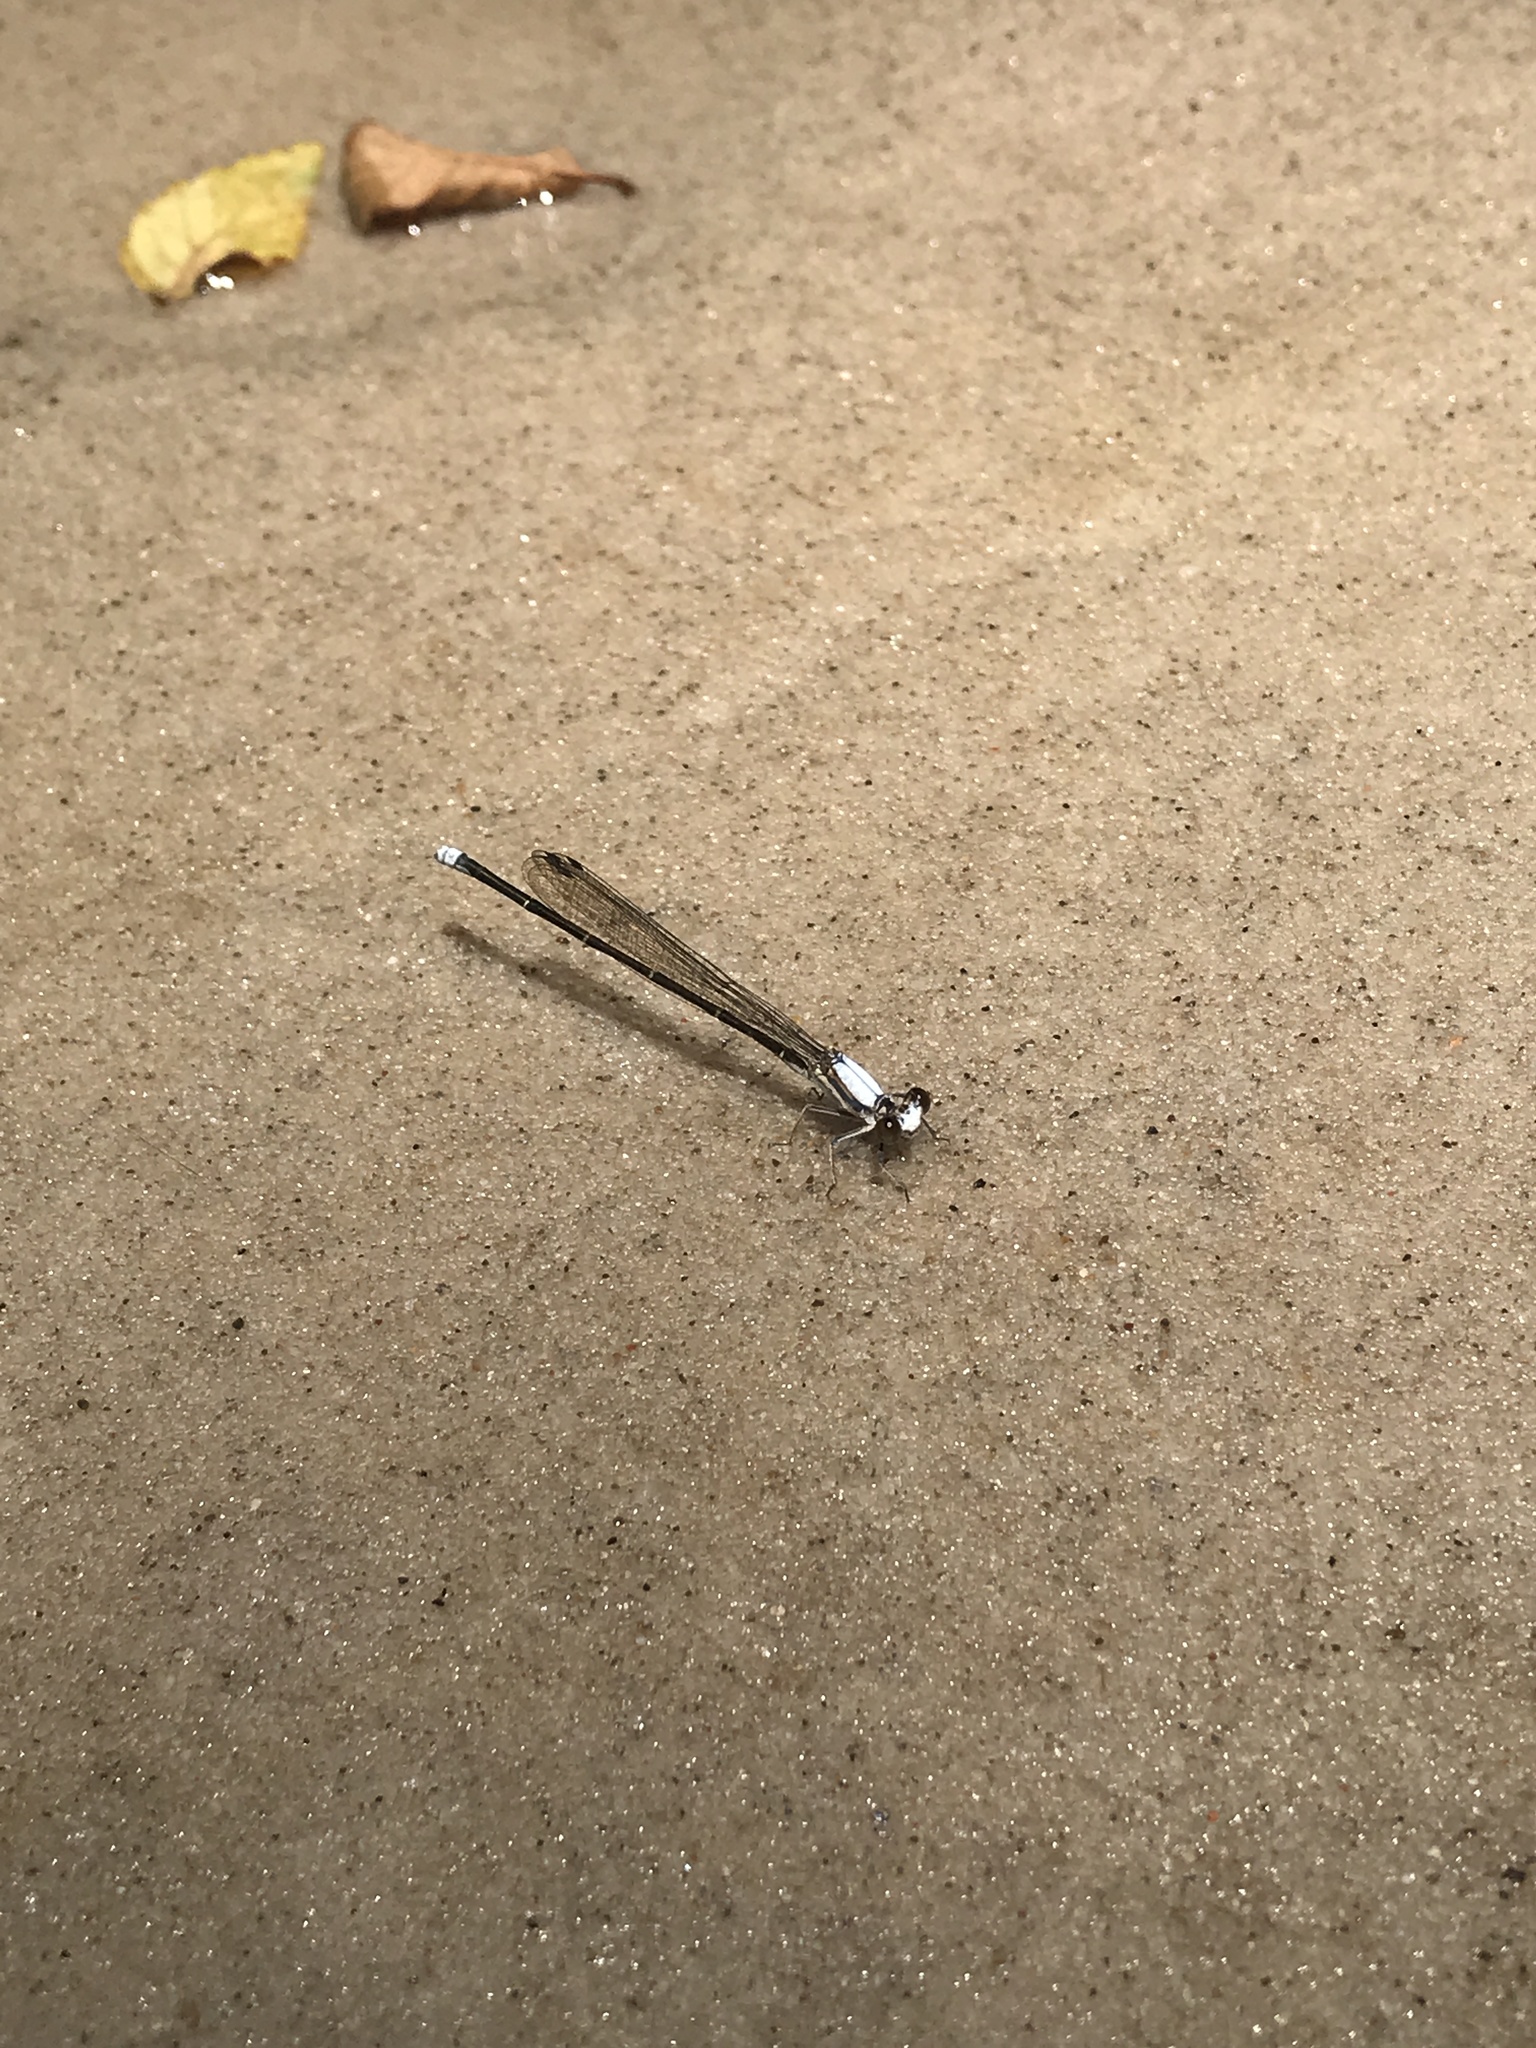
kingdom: Animalia
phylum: Arthropoda
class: Insecta
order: Odonata
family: Coenagrionidae
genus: Argia
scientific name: Argia moesta
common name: Powdered dancer
